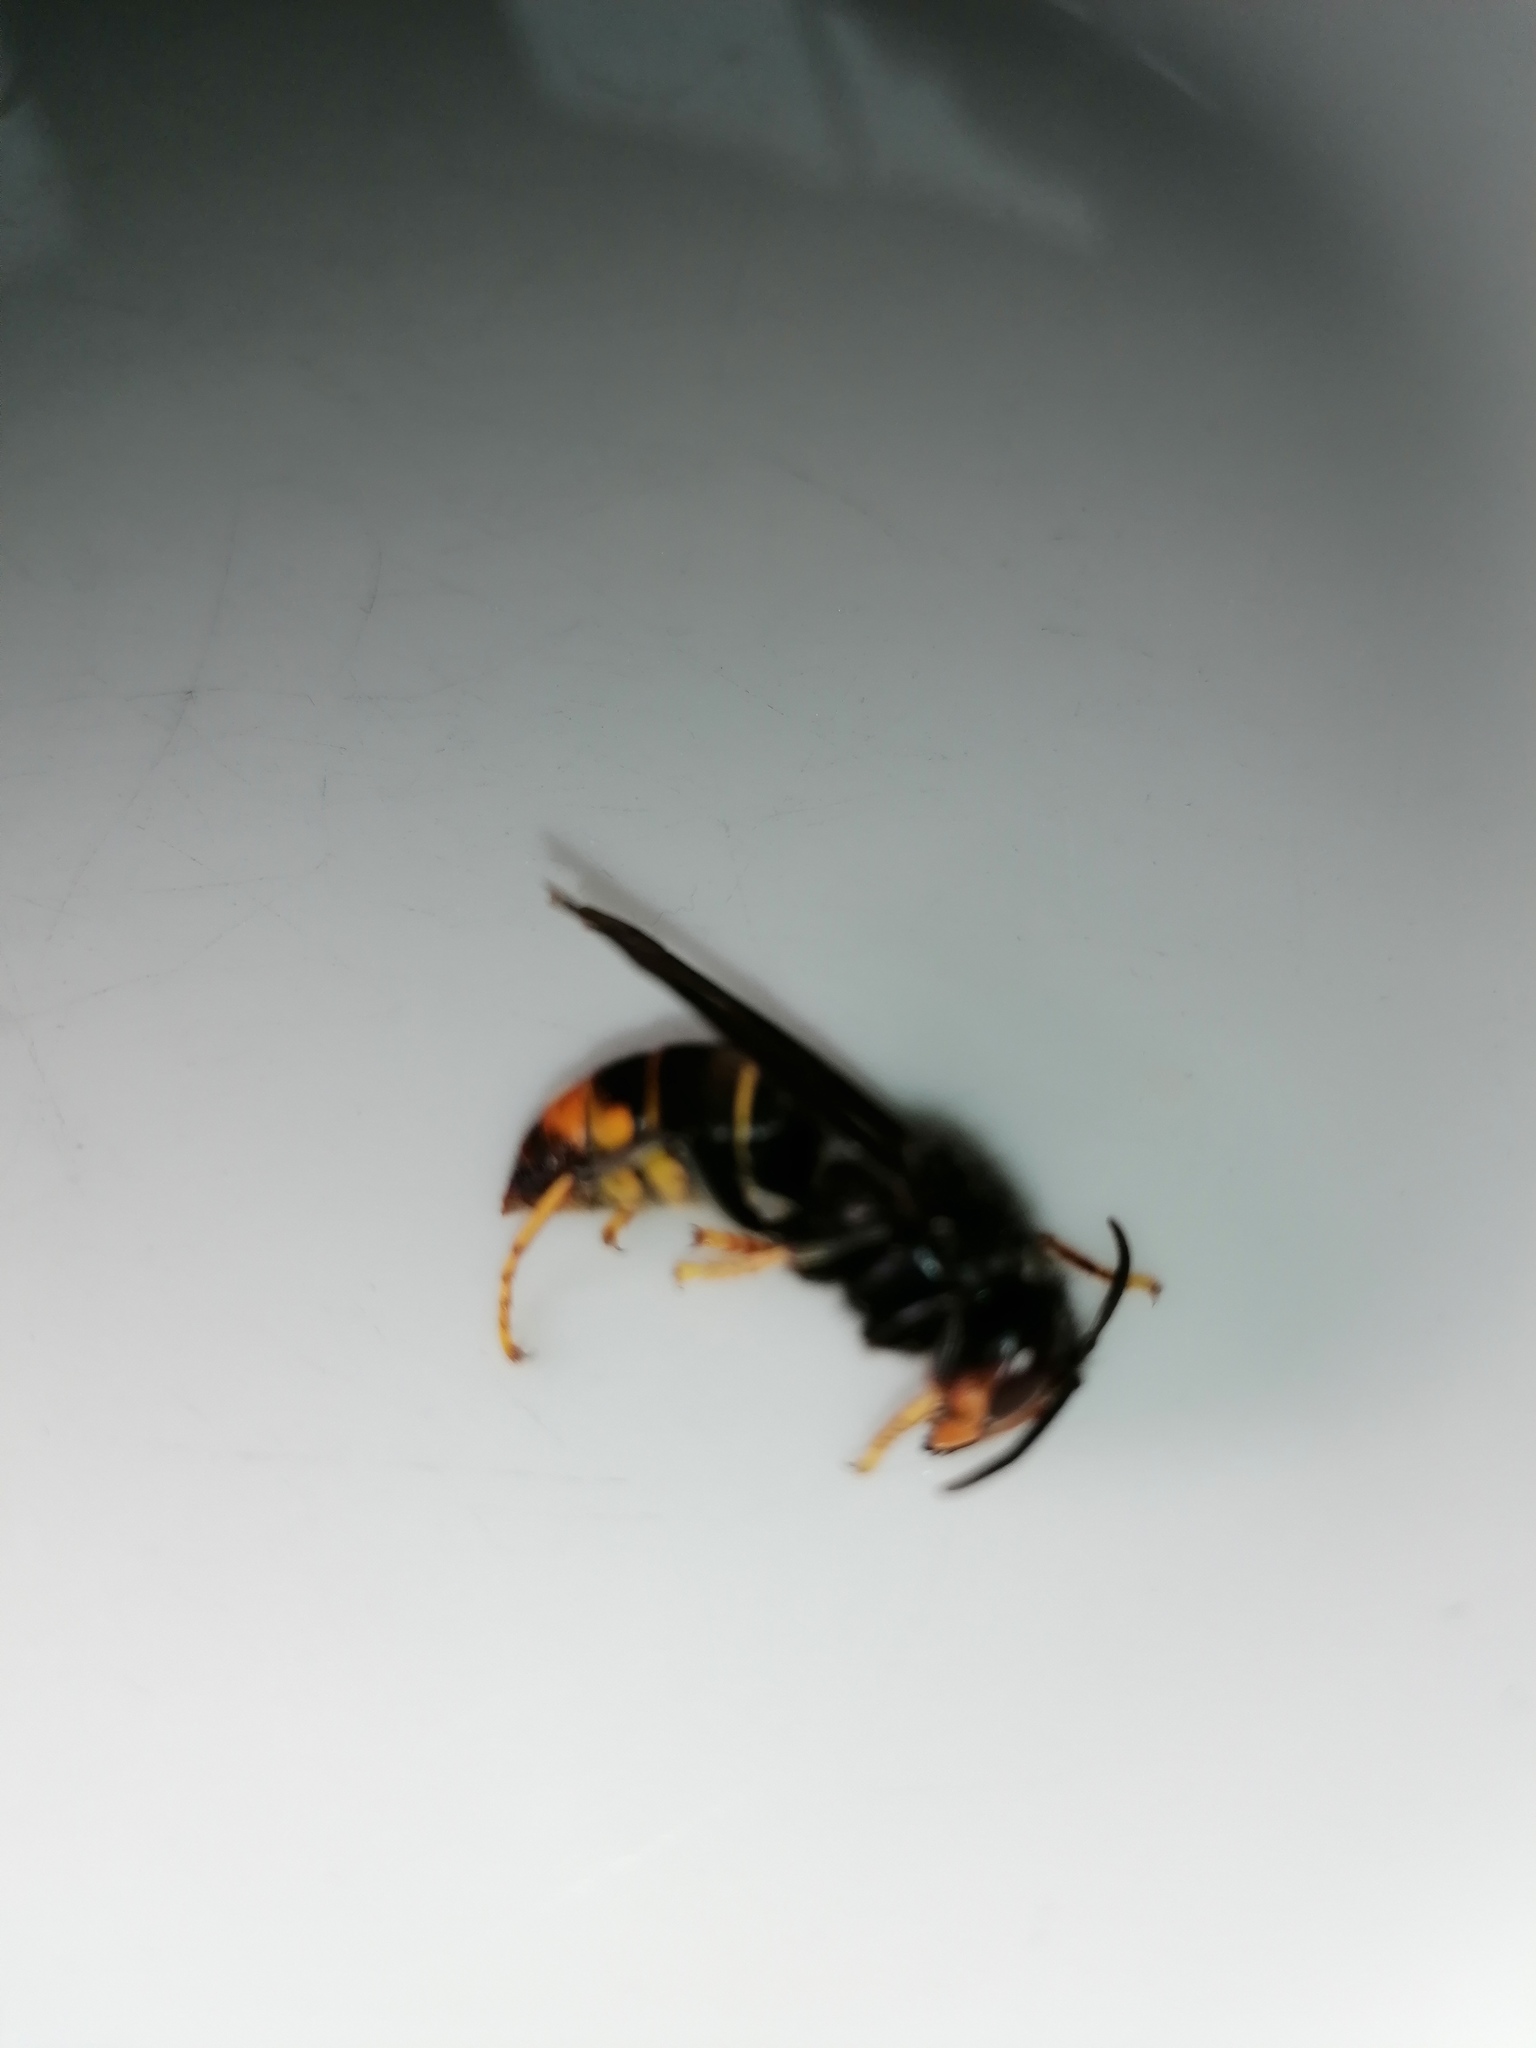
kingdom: Animalia
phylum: Arthropoda
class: Insecta
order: Hymenoptera
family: Vespidae
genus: Vespa
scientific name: Vespa velutina
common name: Asian hornet
